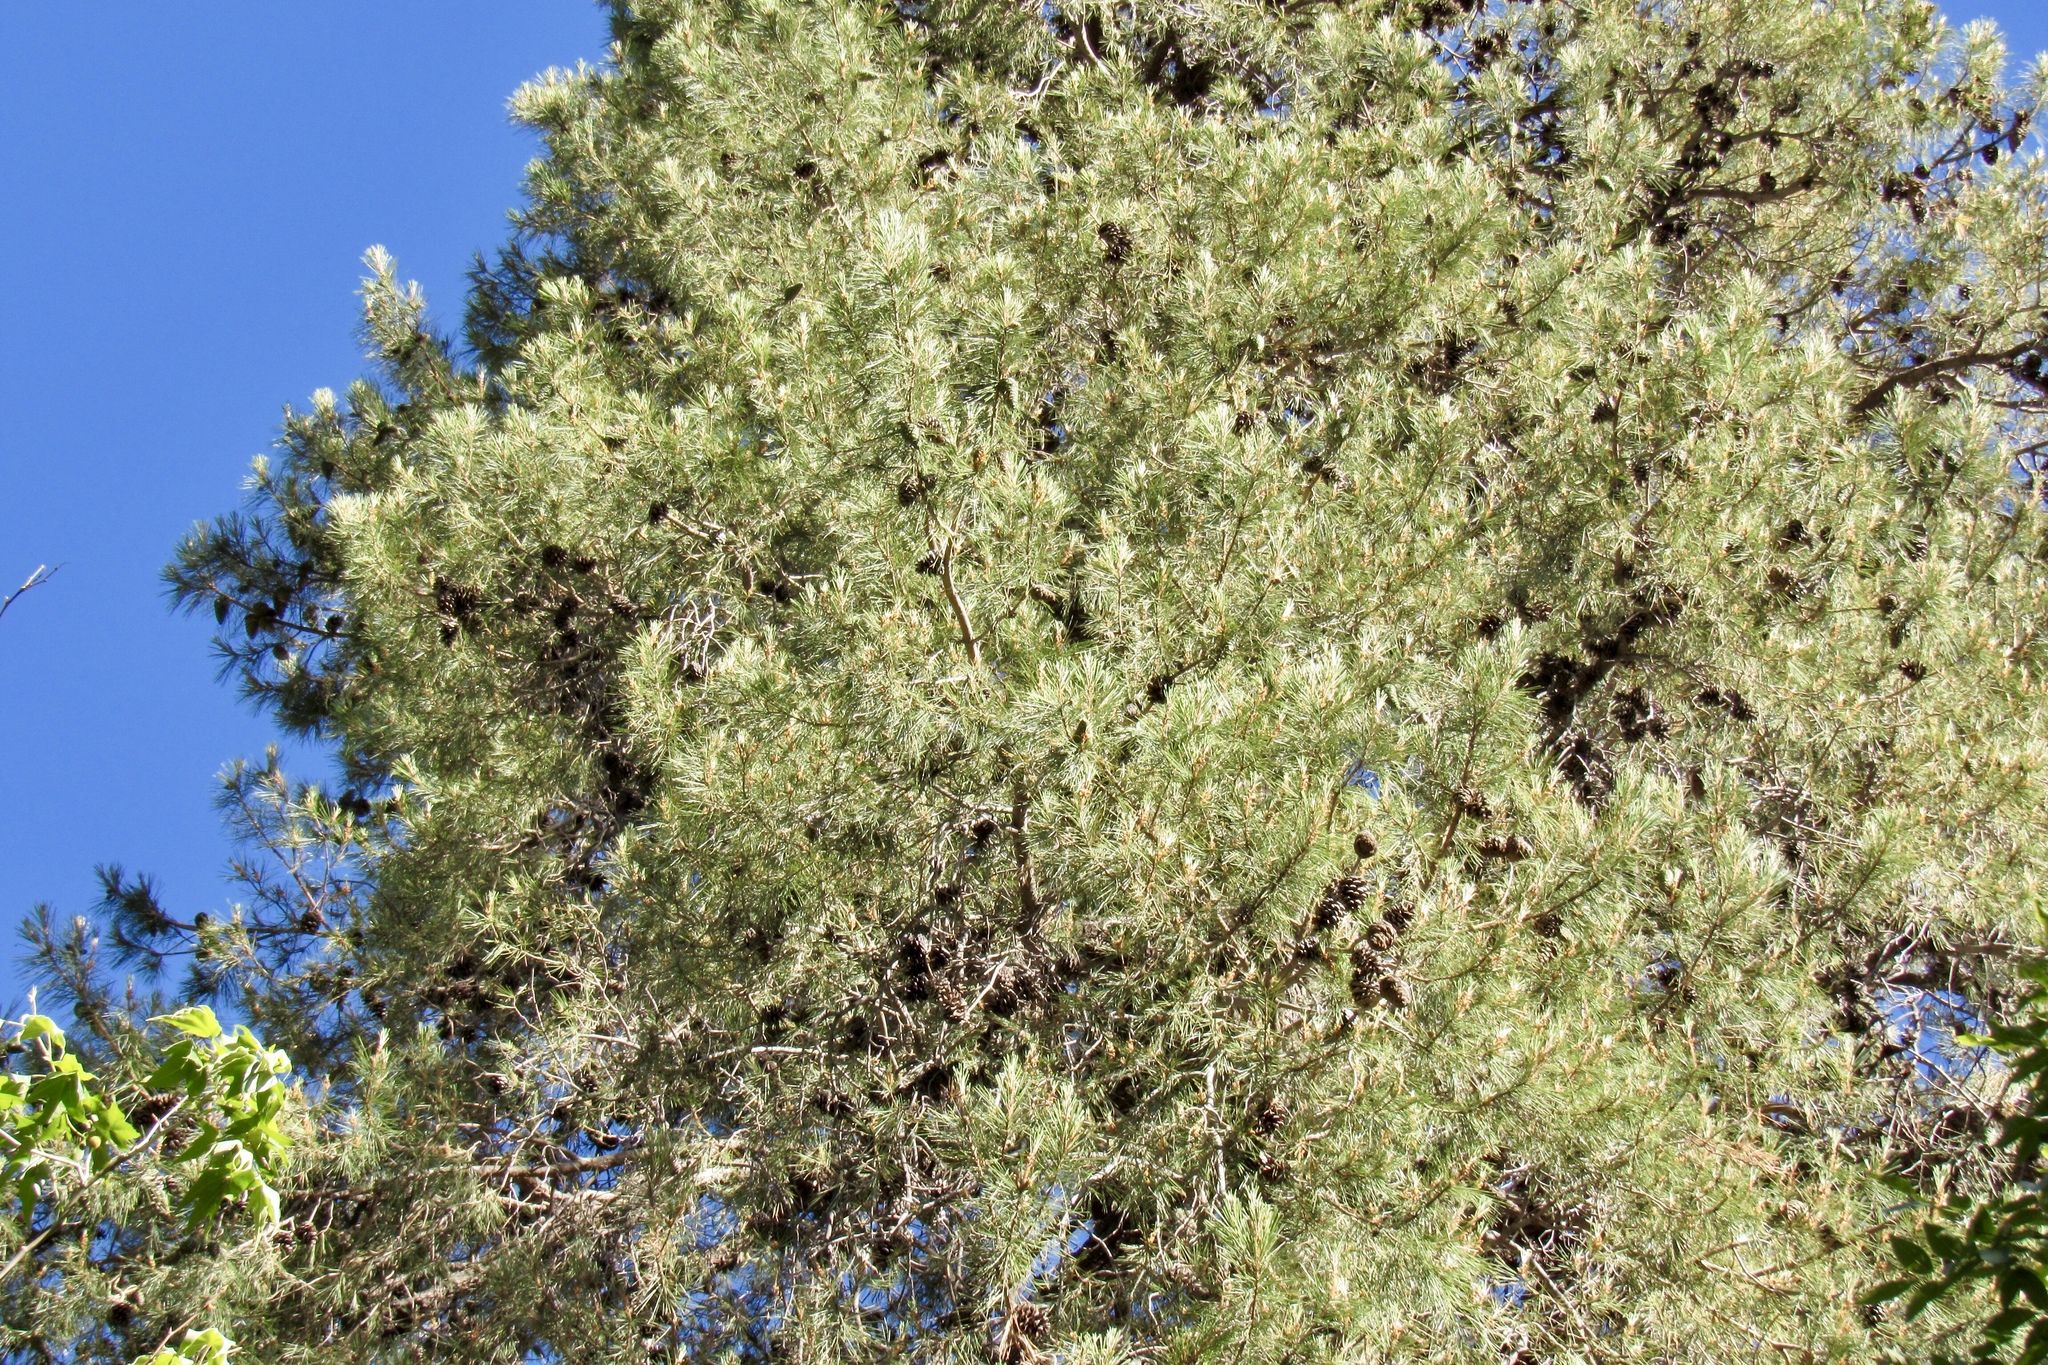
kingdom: Plantae
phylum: Tracheophyta
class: Pinopsida
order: Pinales
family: Pinaceae
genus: Pinus
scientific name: Pinus leiophylla
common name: Chihuahua pine
